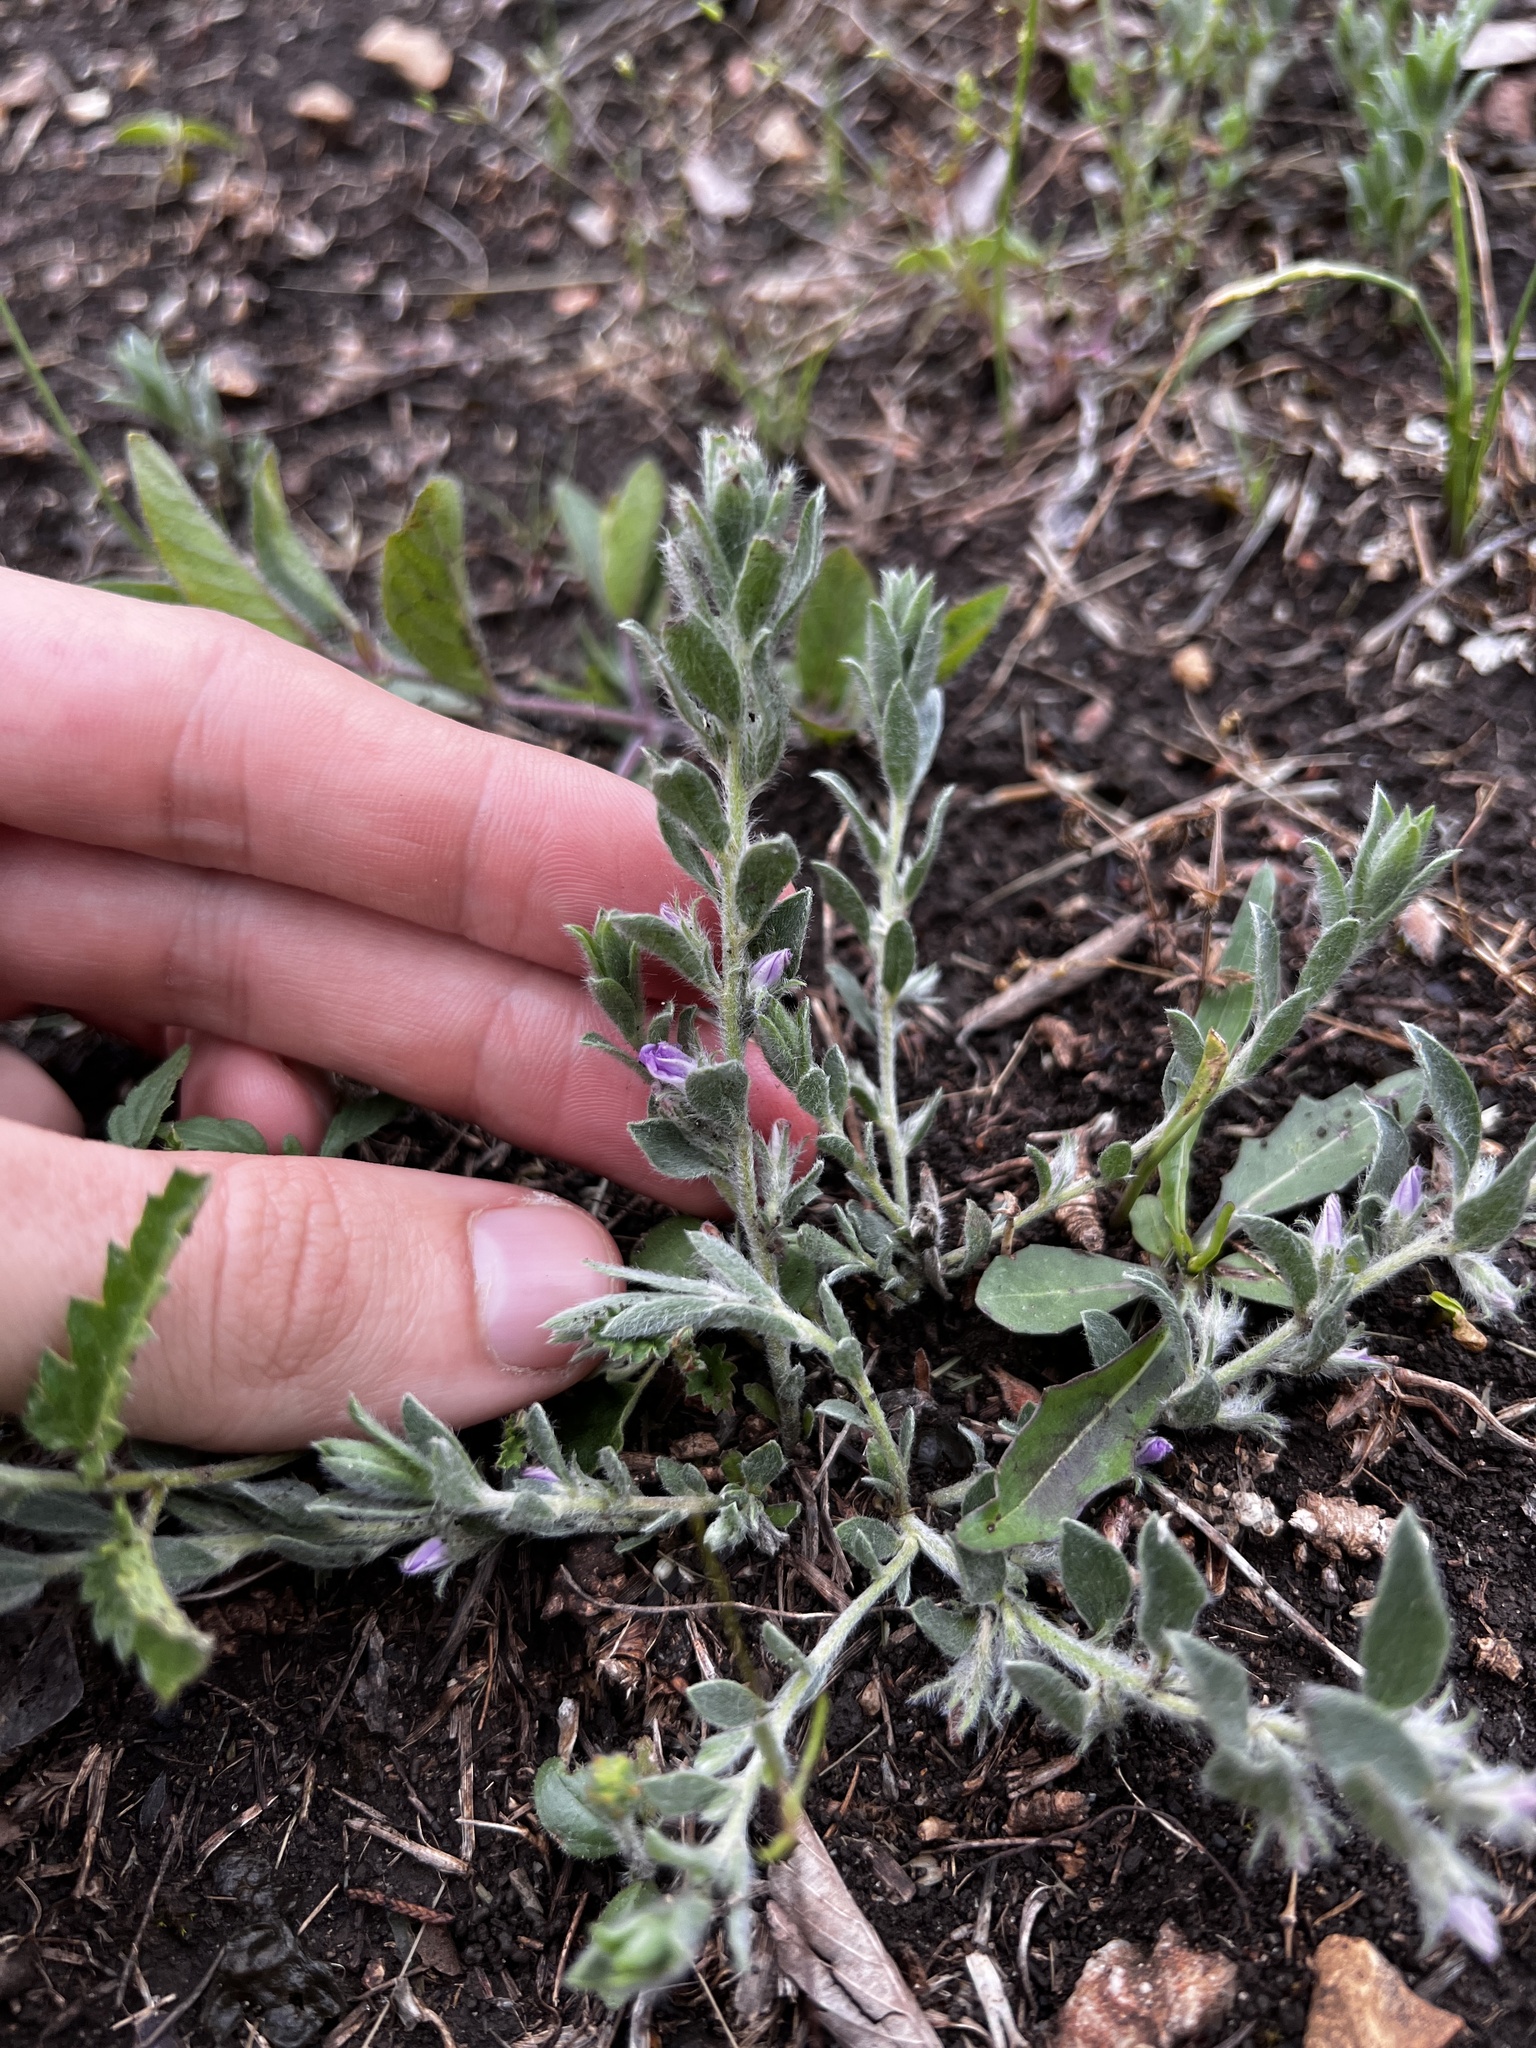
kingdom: Plantae
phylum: Tracheophyta
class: Magnoliopsida
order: Solanales
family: Convolvulaceae
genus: Evolvulus
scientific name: Evolvulus nuttallianus
